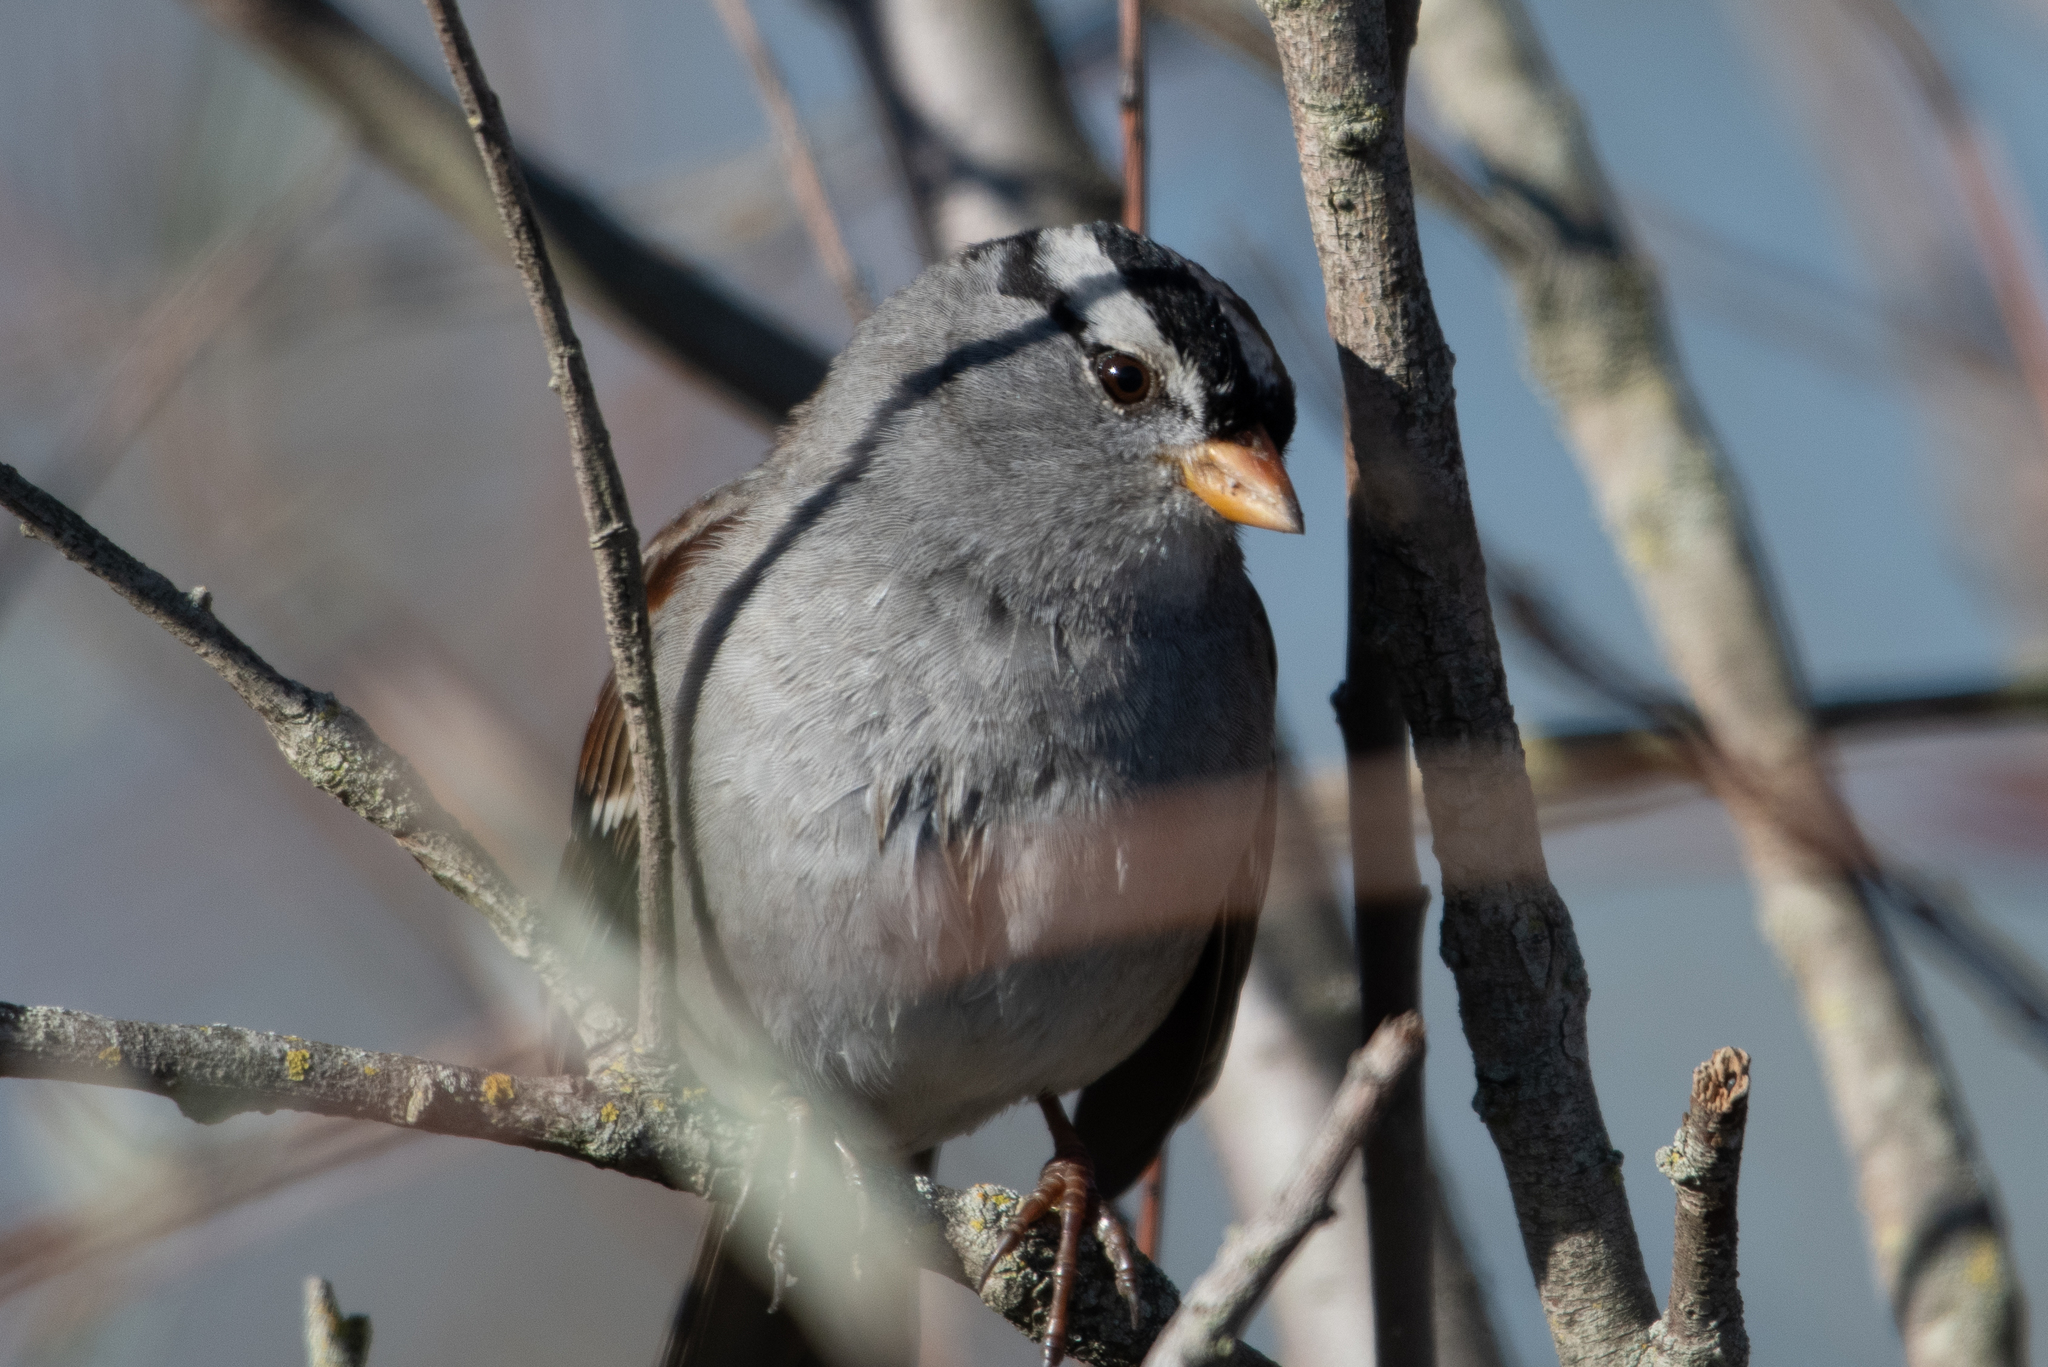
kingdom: Animalia
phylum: Chordata
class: Aves
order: Passeriformes
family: Passerellidae
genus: Zonotrichia
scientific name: Zonotrichia leucophrys
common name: White-crowned sparrow
